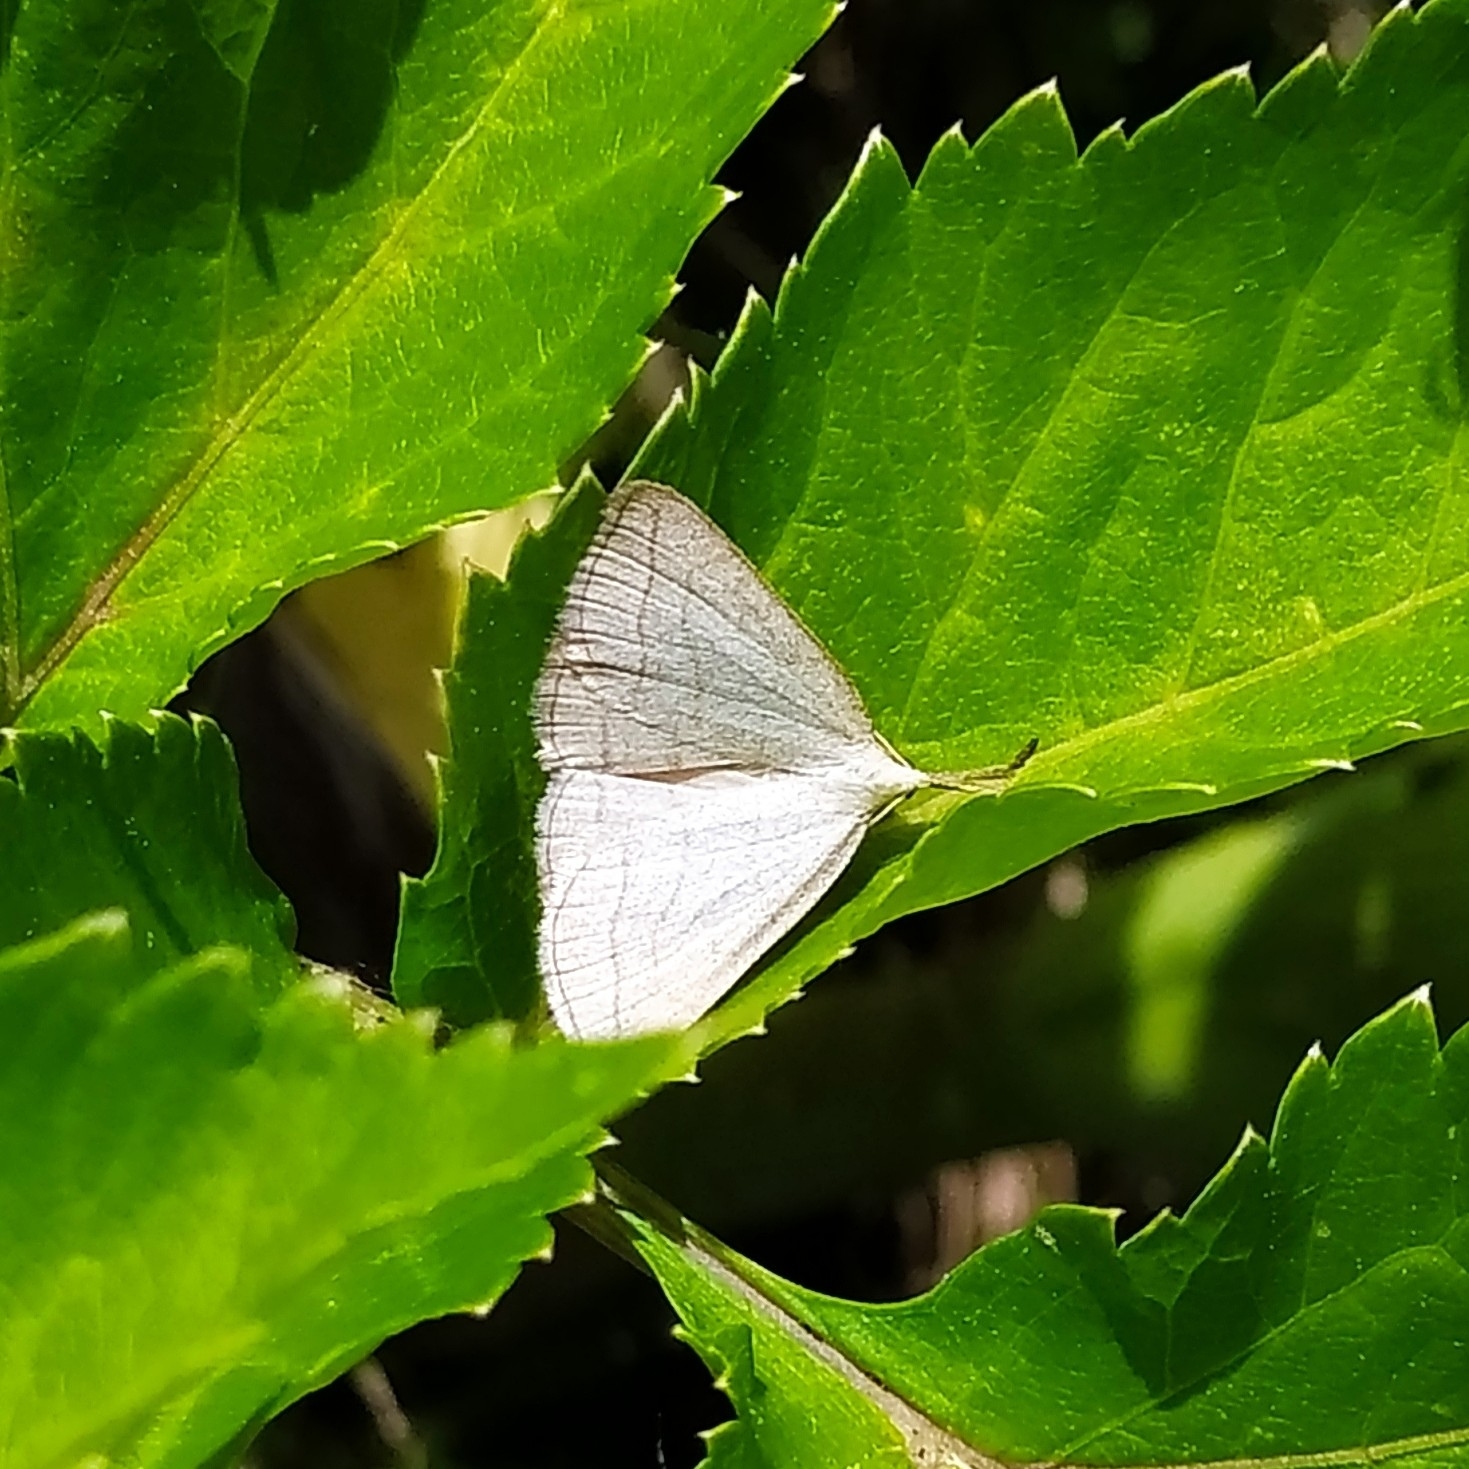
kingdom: Animalia
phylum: Arthropoda
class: Insecta
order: Lepidoptera
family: Erebidae
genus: Polypogon
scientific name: Polypogon tentacularia
